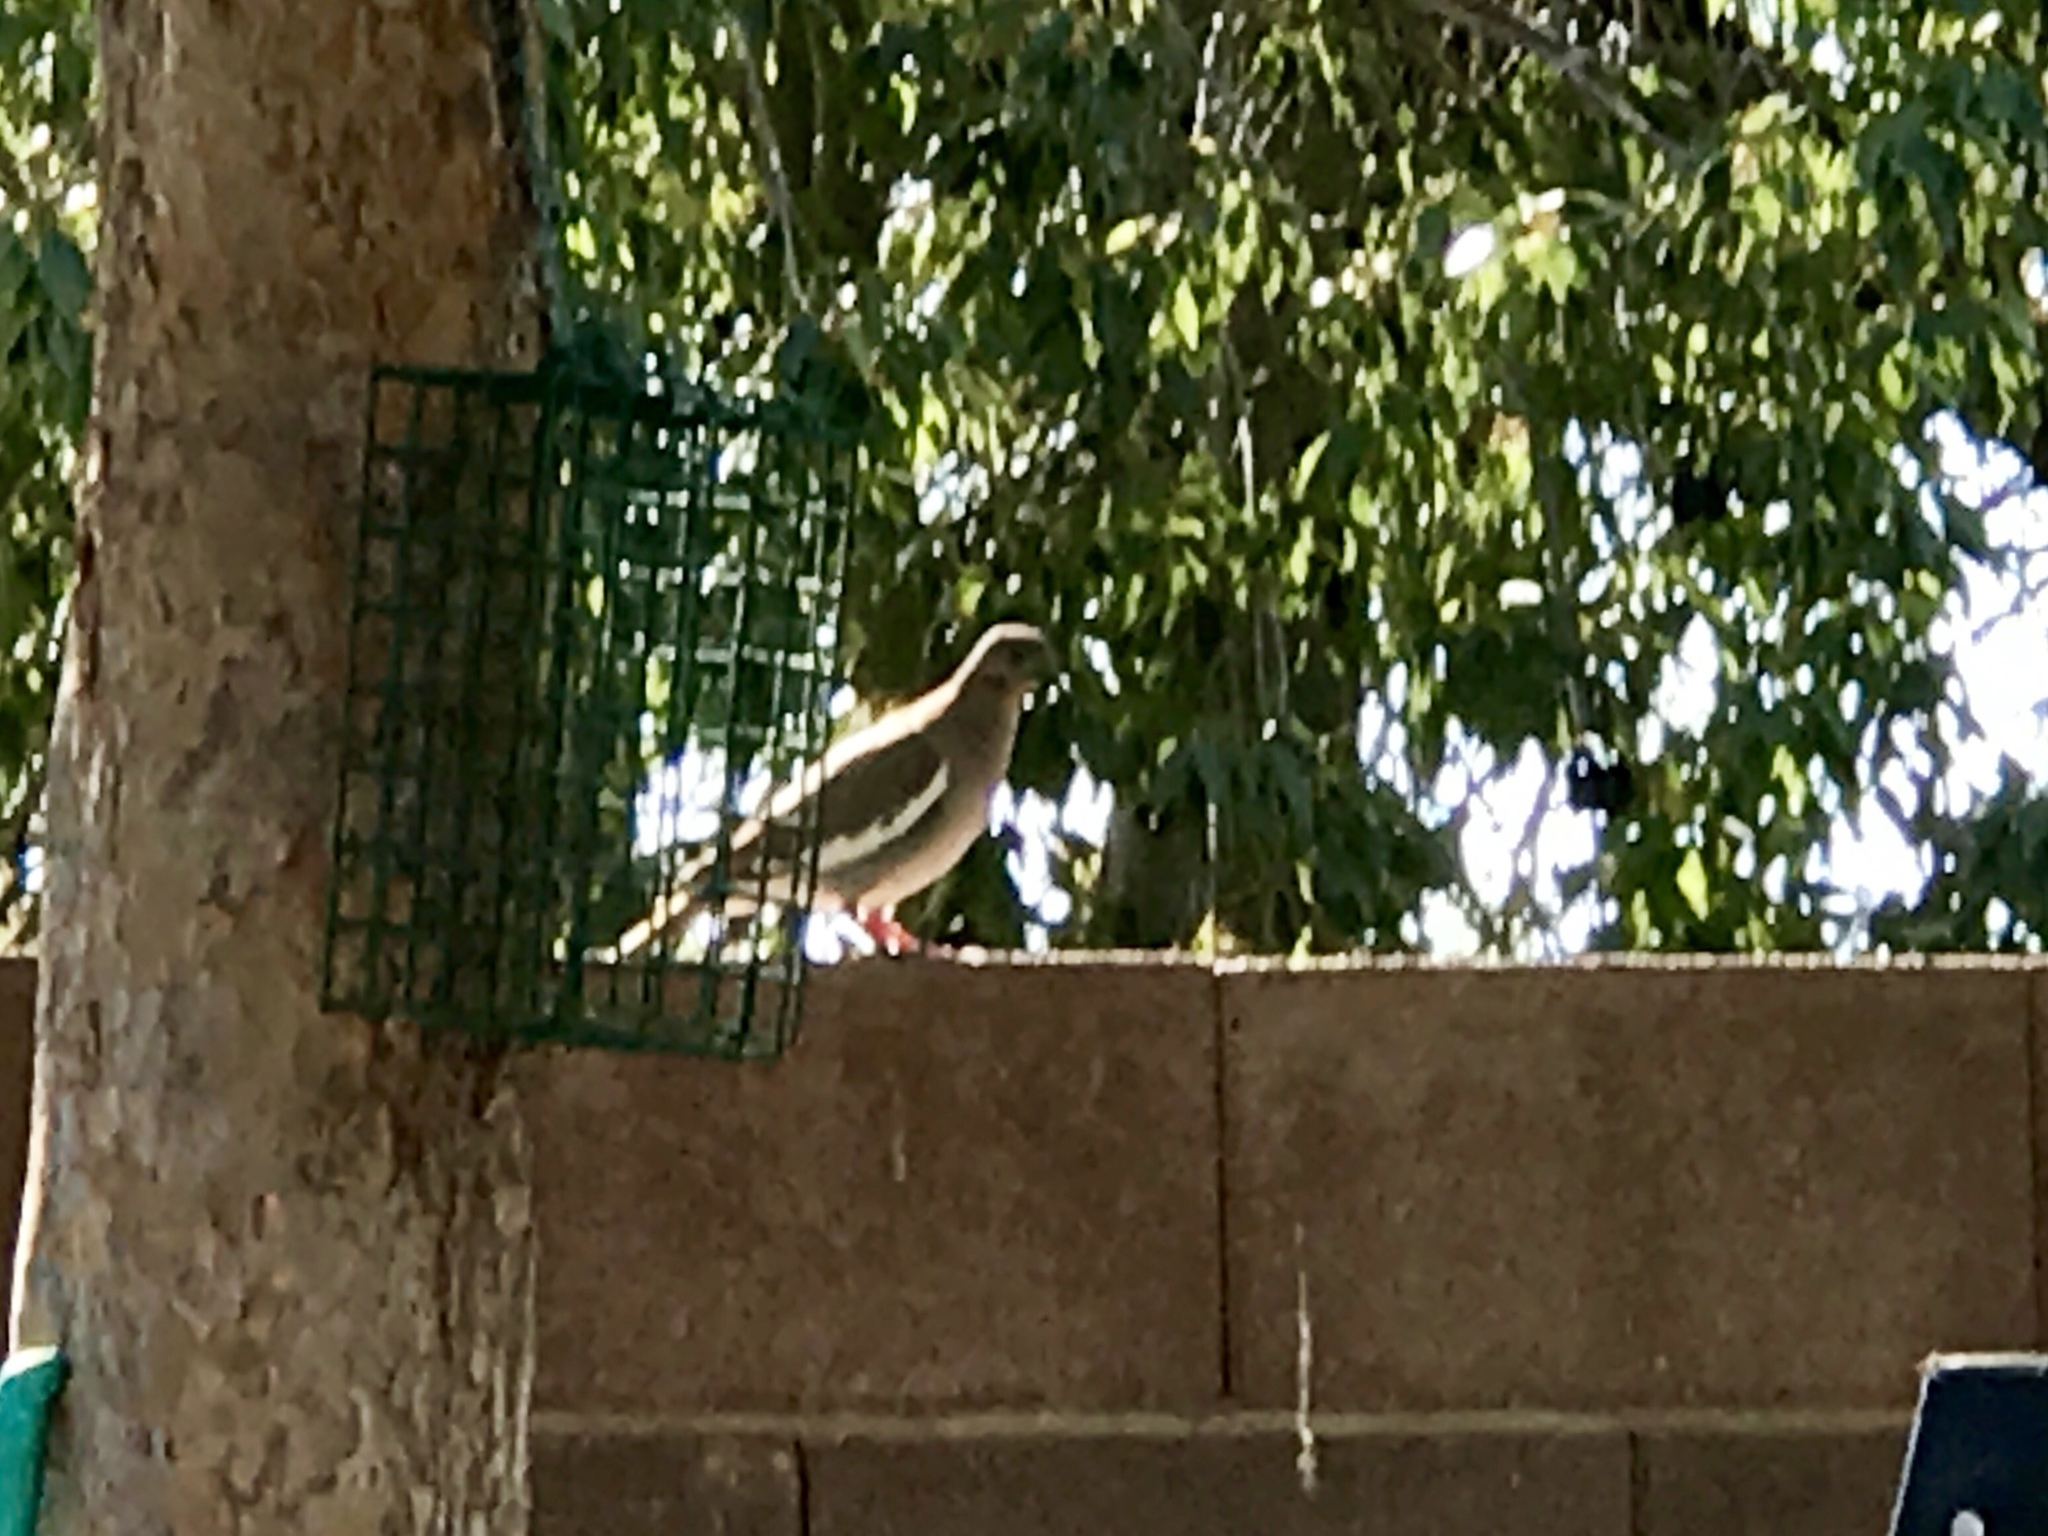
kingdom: Animalia
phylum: Chordata
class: Aves
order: Columbiformes
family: Columbidae
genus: Zenaida
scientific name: Zenaida asiatica
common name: White-winged dove
